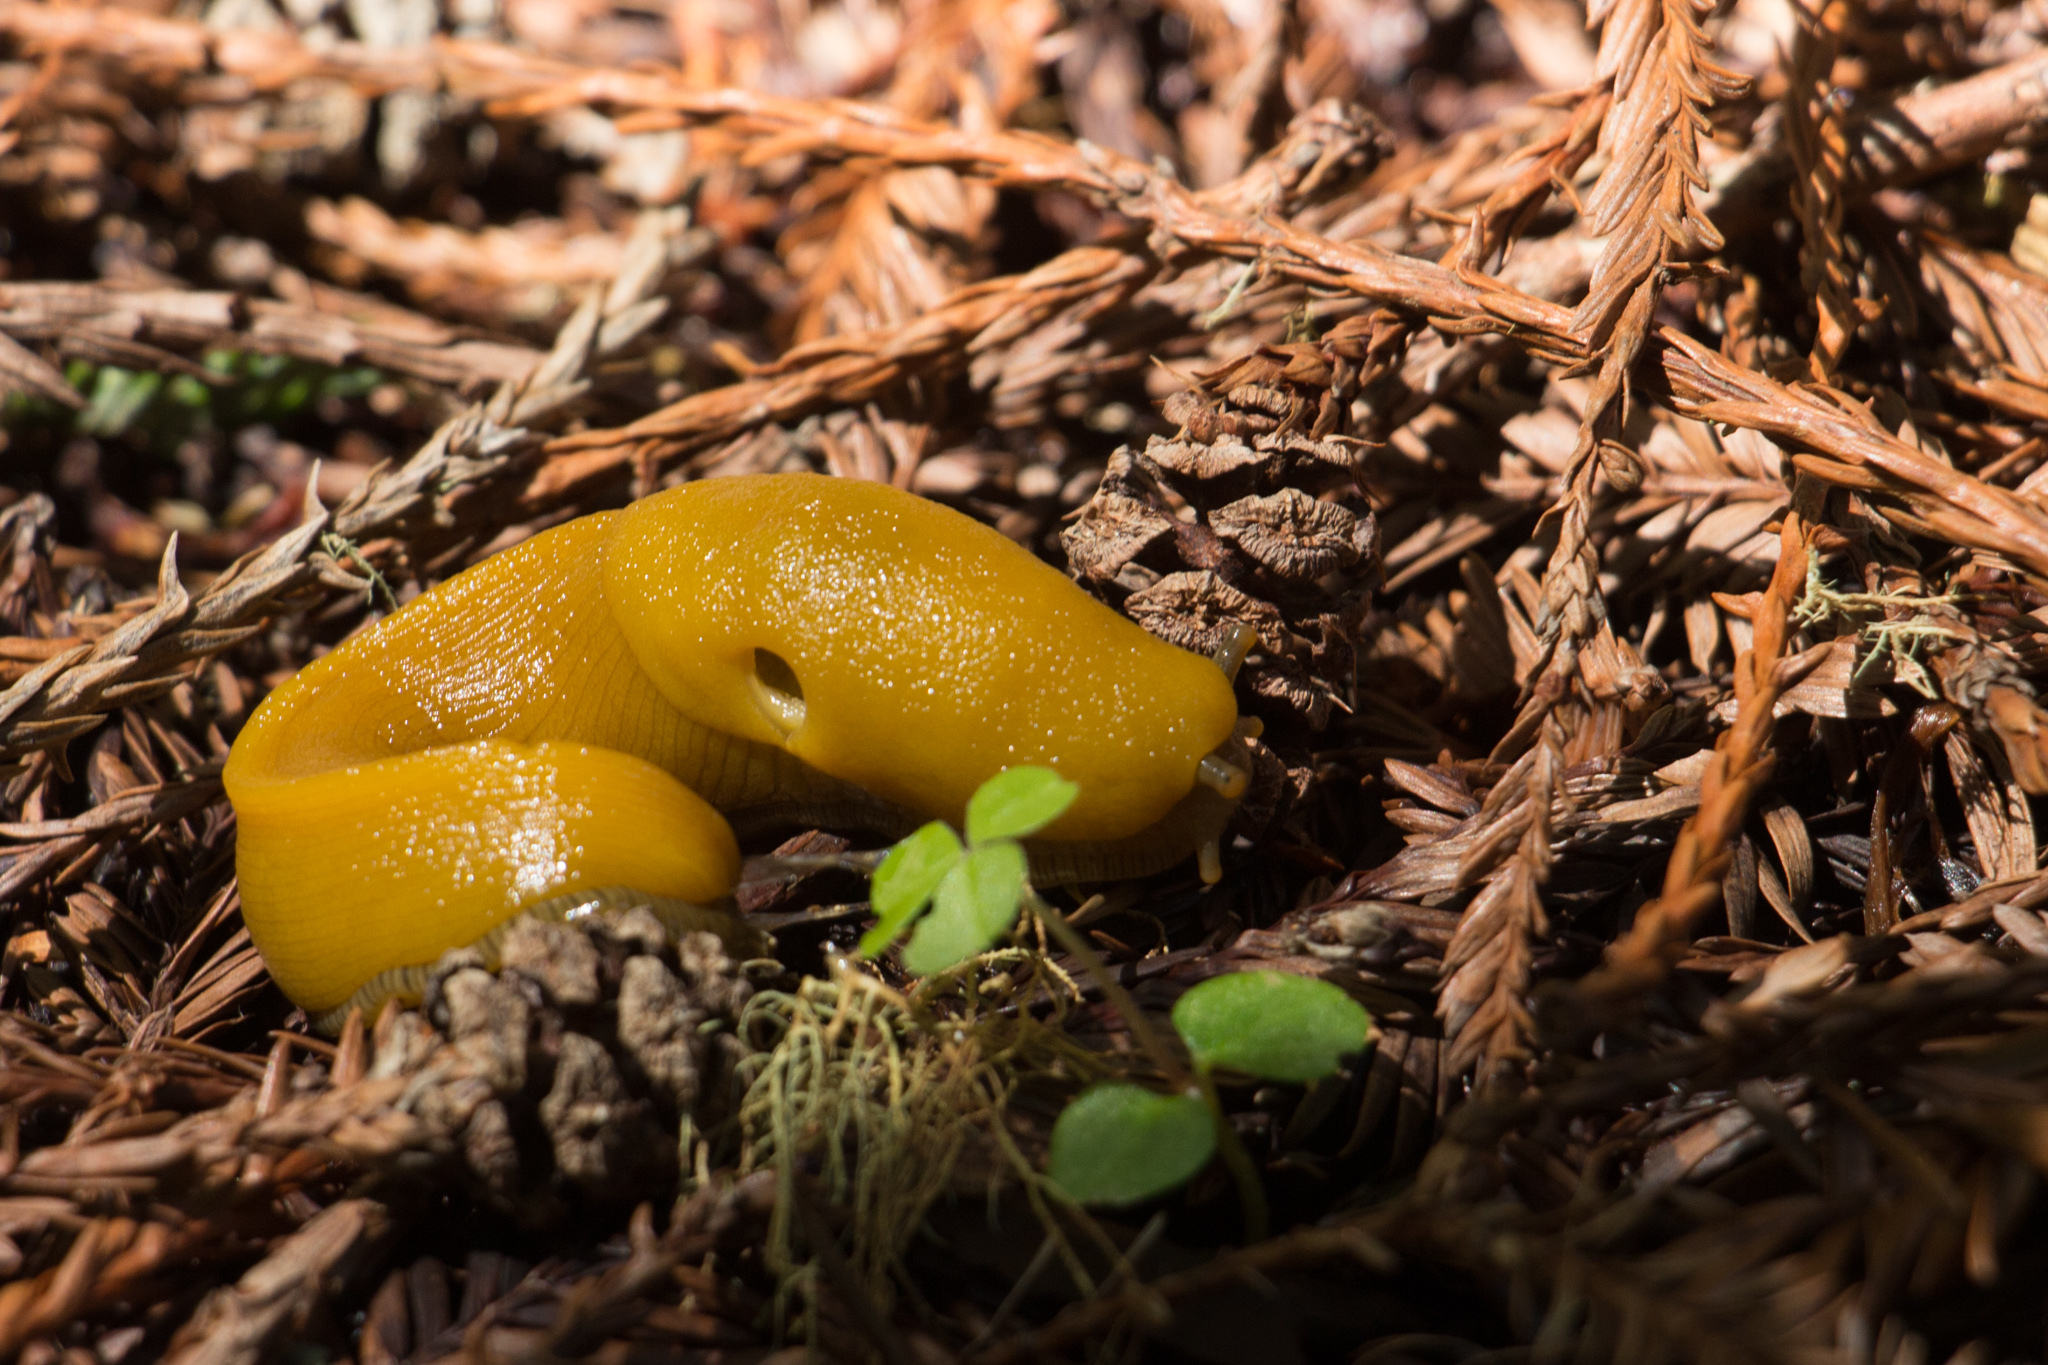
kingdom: Animalia
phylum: Mollusca
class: Gastropoda
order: Stylommatophora
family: Ariolimacidae
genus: Ariolimax
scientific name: Ariolimax buttoni
